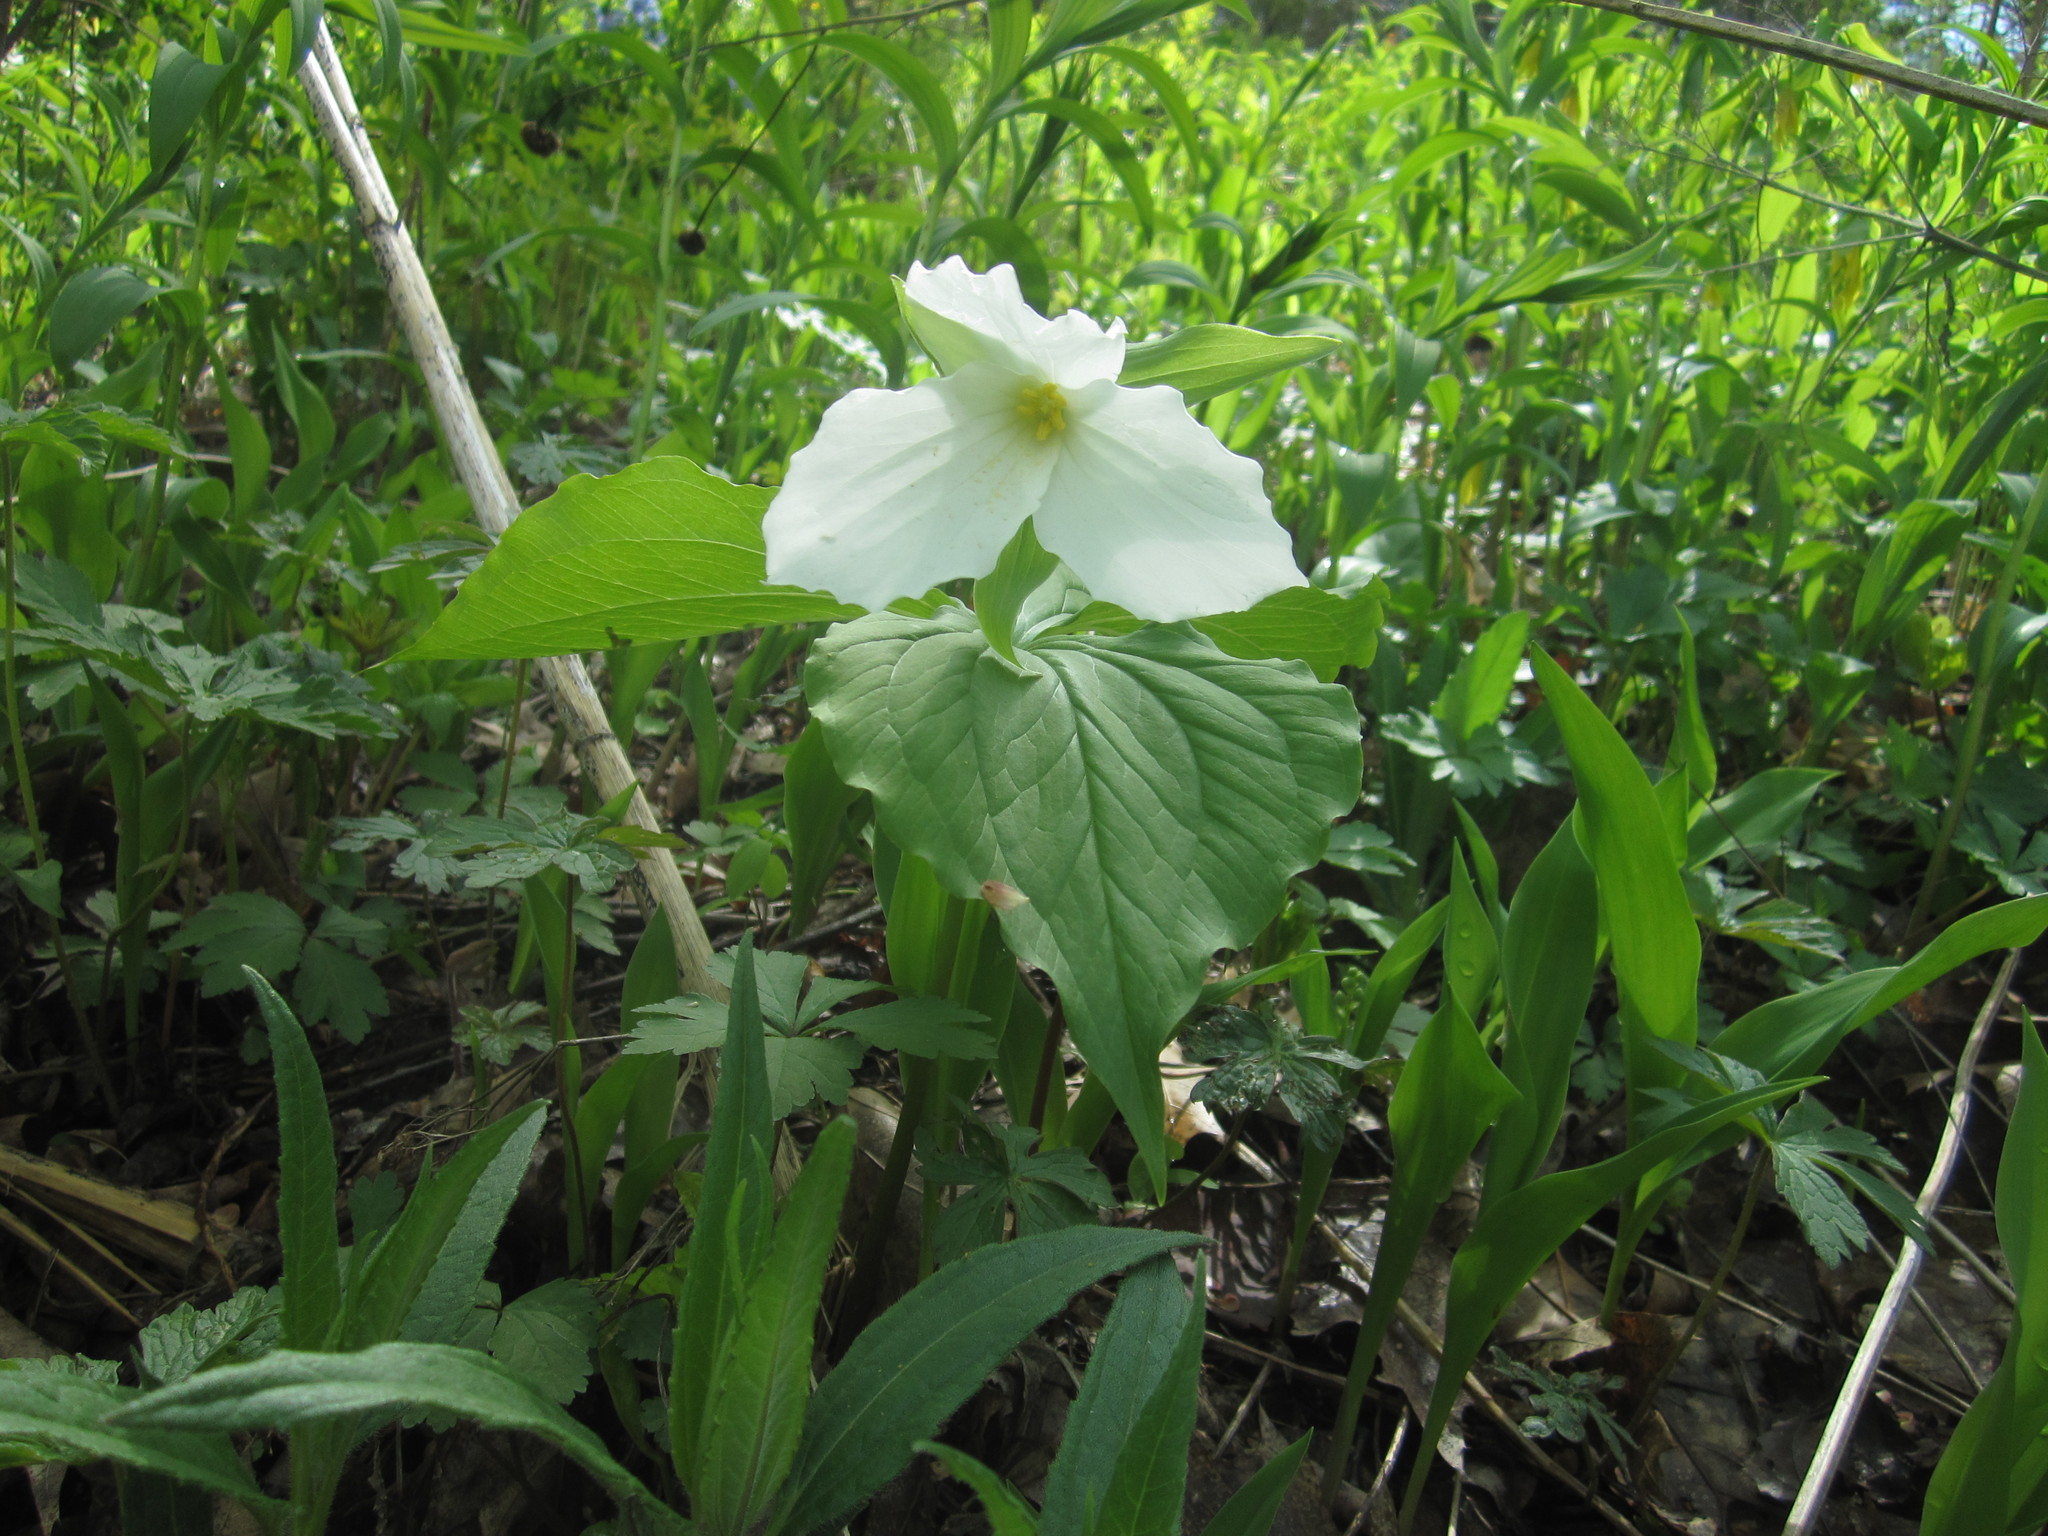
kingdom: Plantae
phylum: Tracheophyta
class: Liliopsida
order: Liliales
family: Melanthiaceae
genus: Trillium
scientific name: Trillium grandiflorum
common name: Great white trillium
